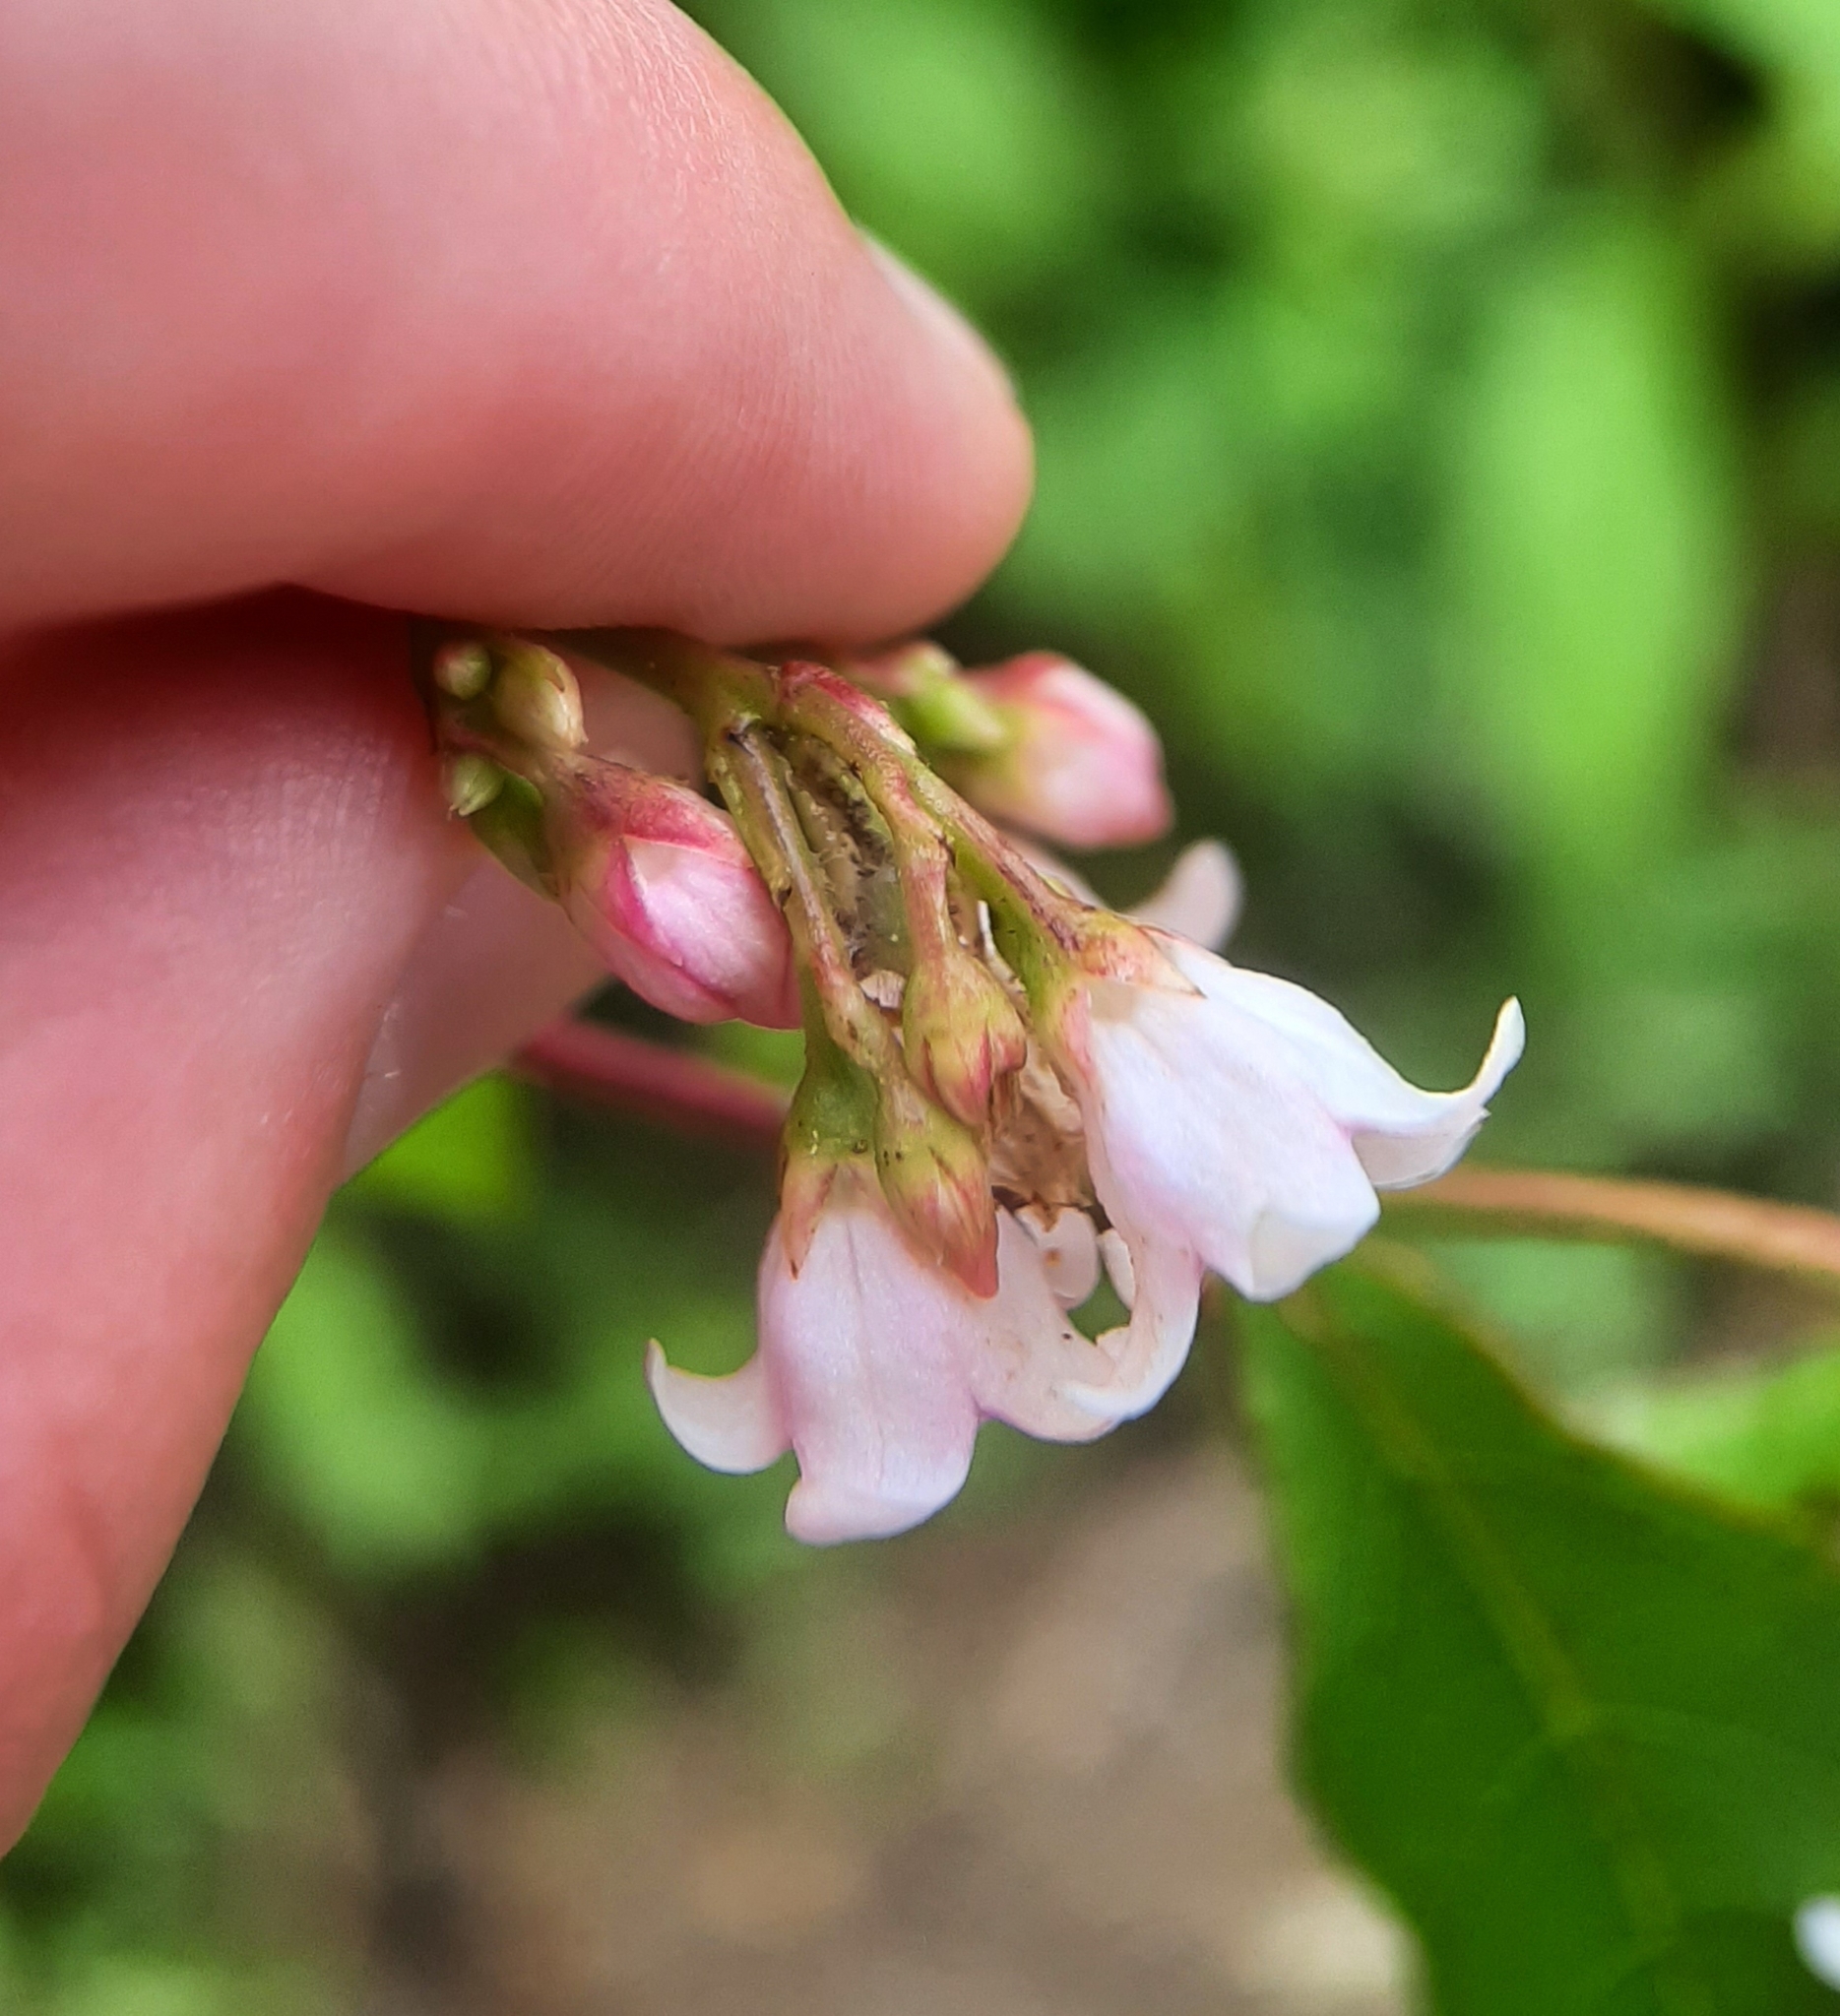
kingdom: Plantae
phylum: Tracheophyta
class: Magnoliopsida
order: Gentianales
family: Apocynaceae
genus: Apocynum
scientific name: Apocynum androsaemifolium
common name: Spreading dogbane
